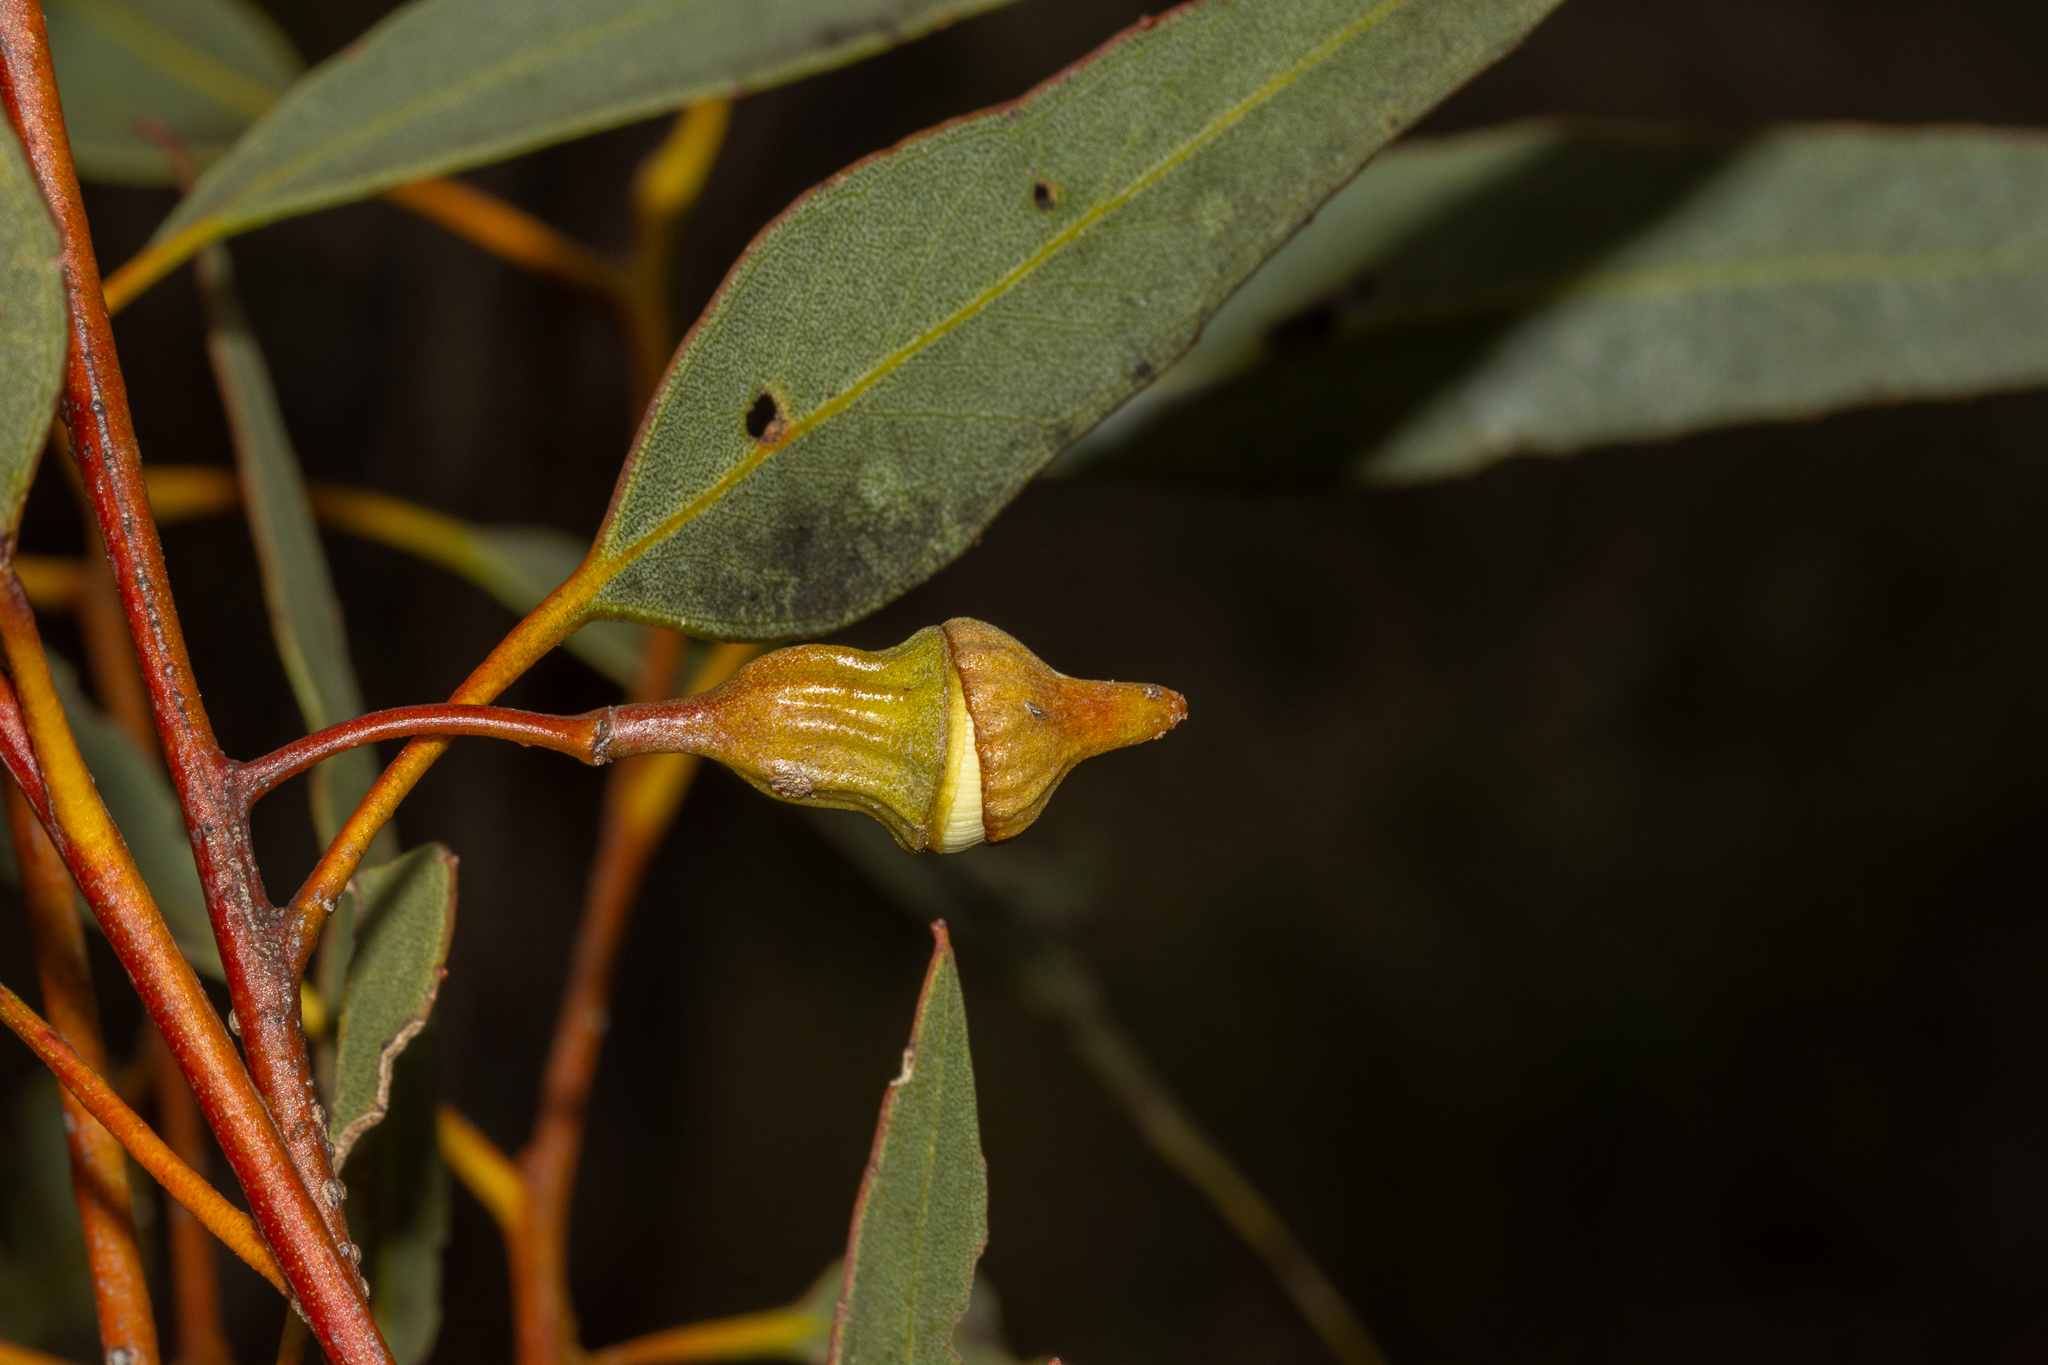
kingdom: Plantae
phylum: Tracheophyta
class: Magnoliopsida
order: Myrtales
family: Myrtaceae
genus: Eucalyptus
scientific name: Eucalyptus incrassata
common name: Ridge-fruit mallee
